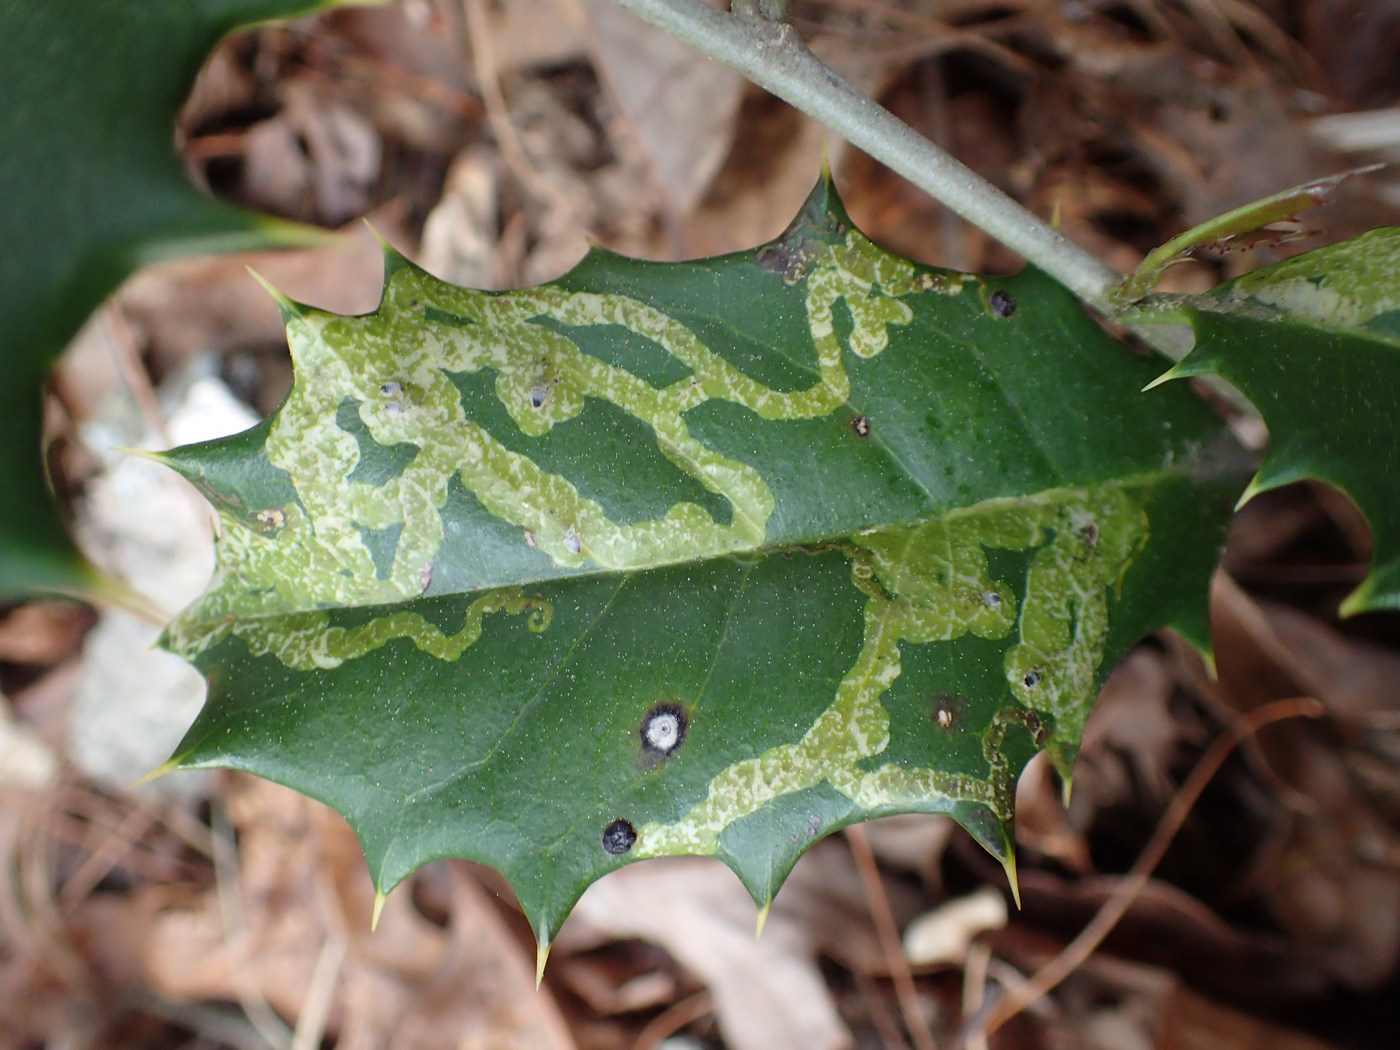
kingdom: Animalia
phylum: Arthropoda
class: Insecta
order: Diptera
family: Agromyzidae
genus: Phytomyza
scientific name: Phytomyza ilicicola
